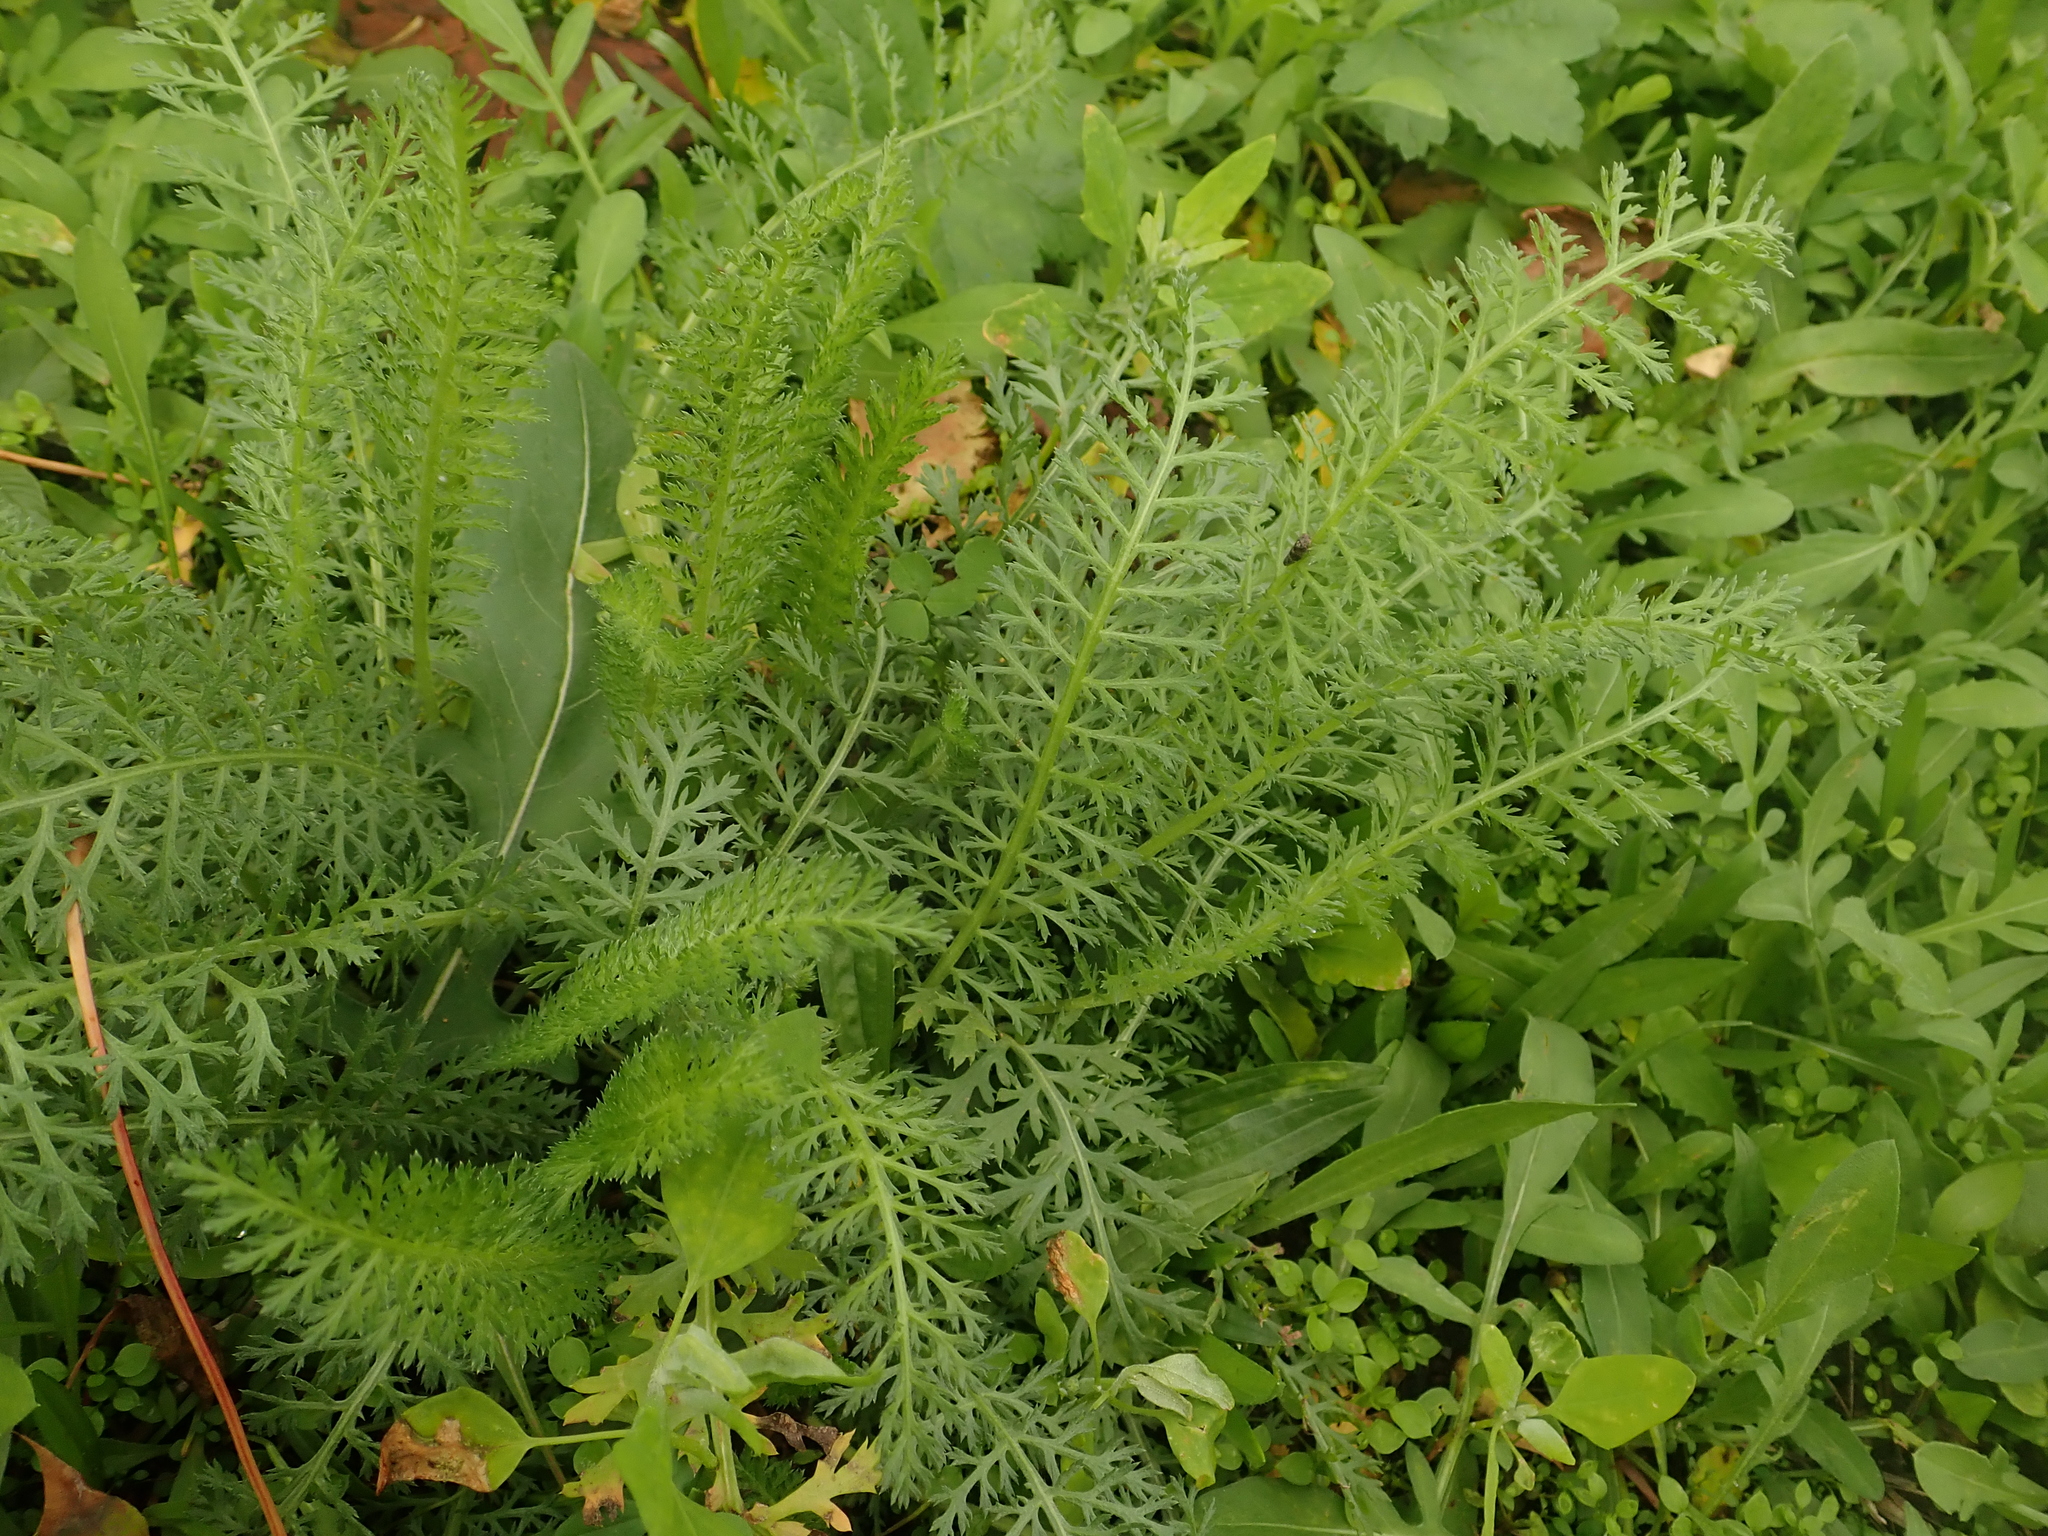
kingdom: Plantae
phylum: Tracheophyta
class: Magnoliopsida
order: Asterales
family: Asteraceae
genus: Achillea
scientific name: Achillea millefolium
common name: Yarrow
